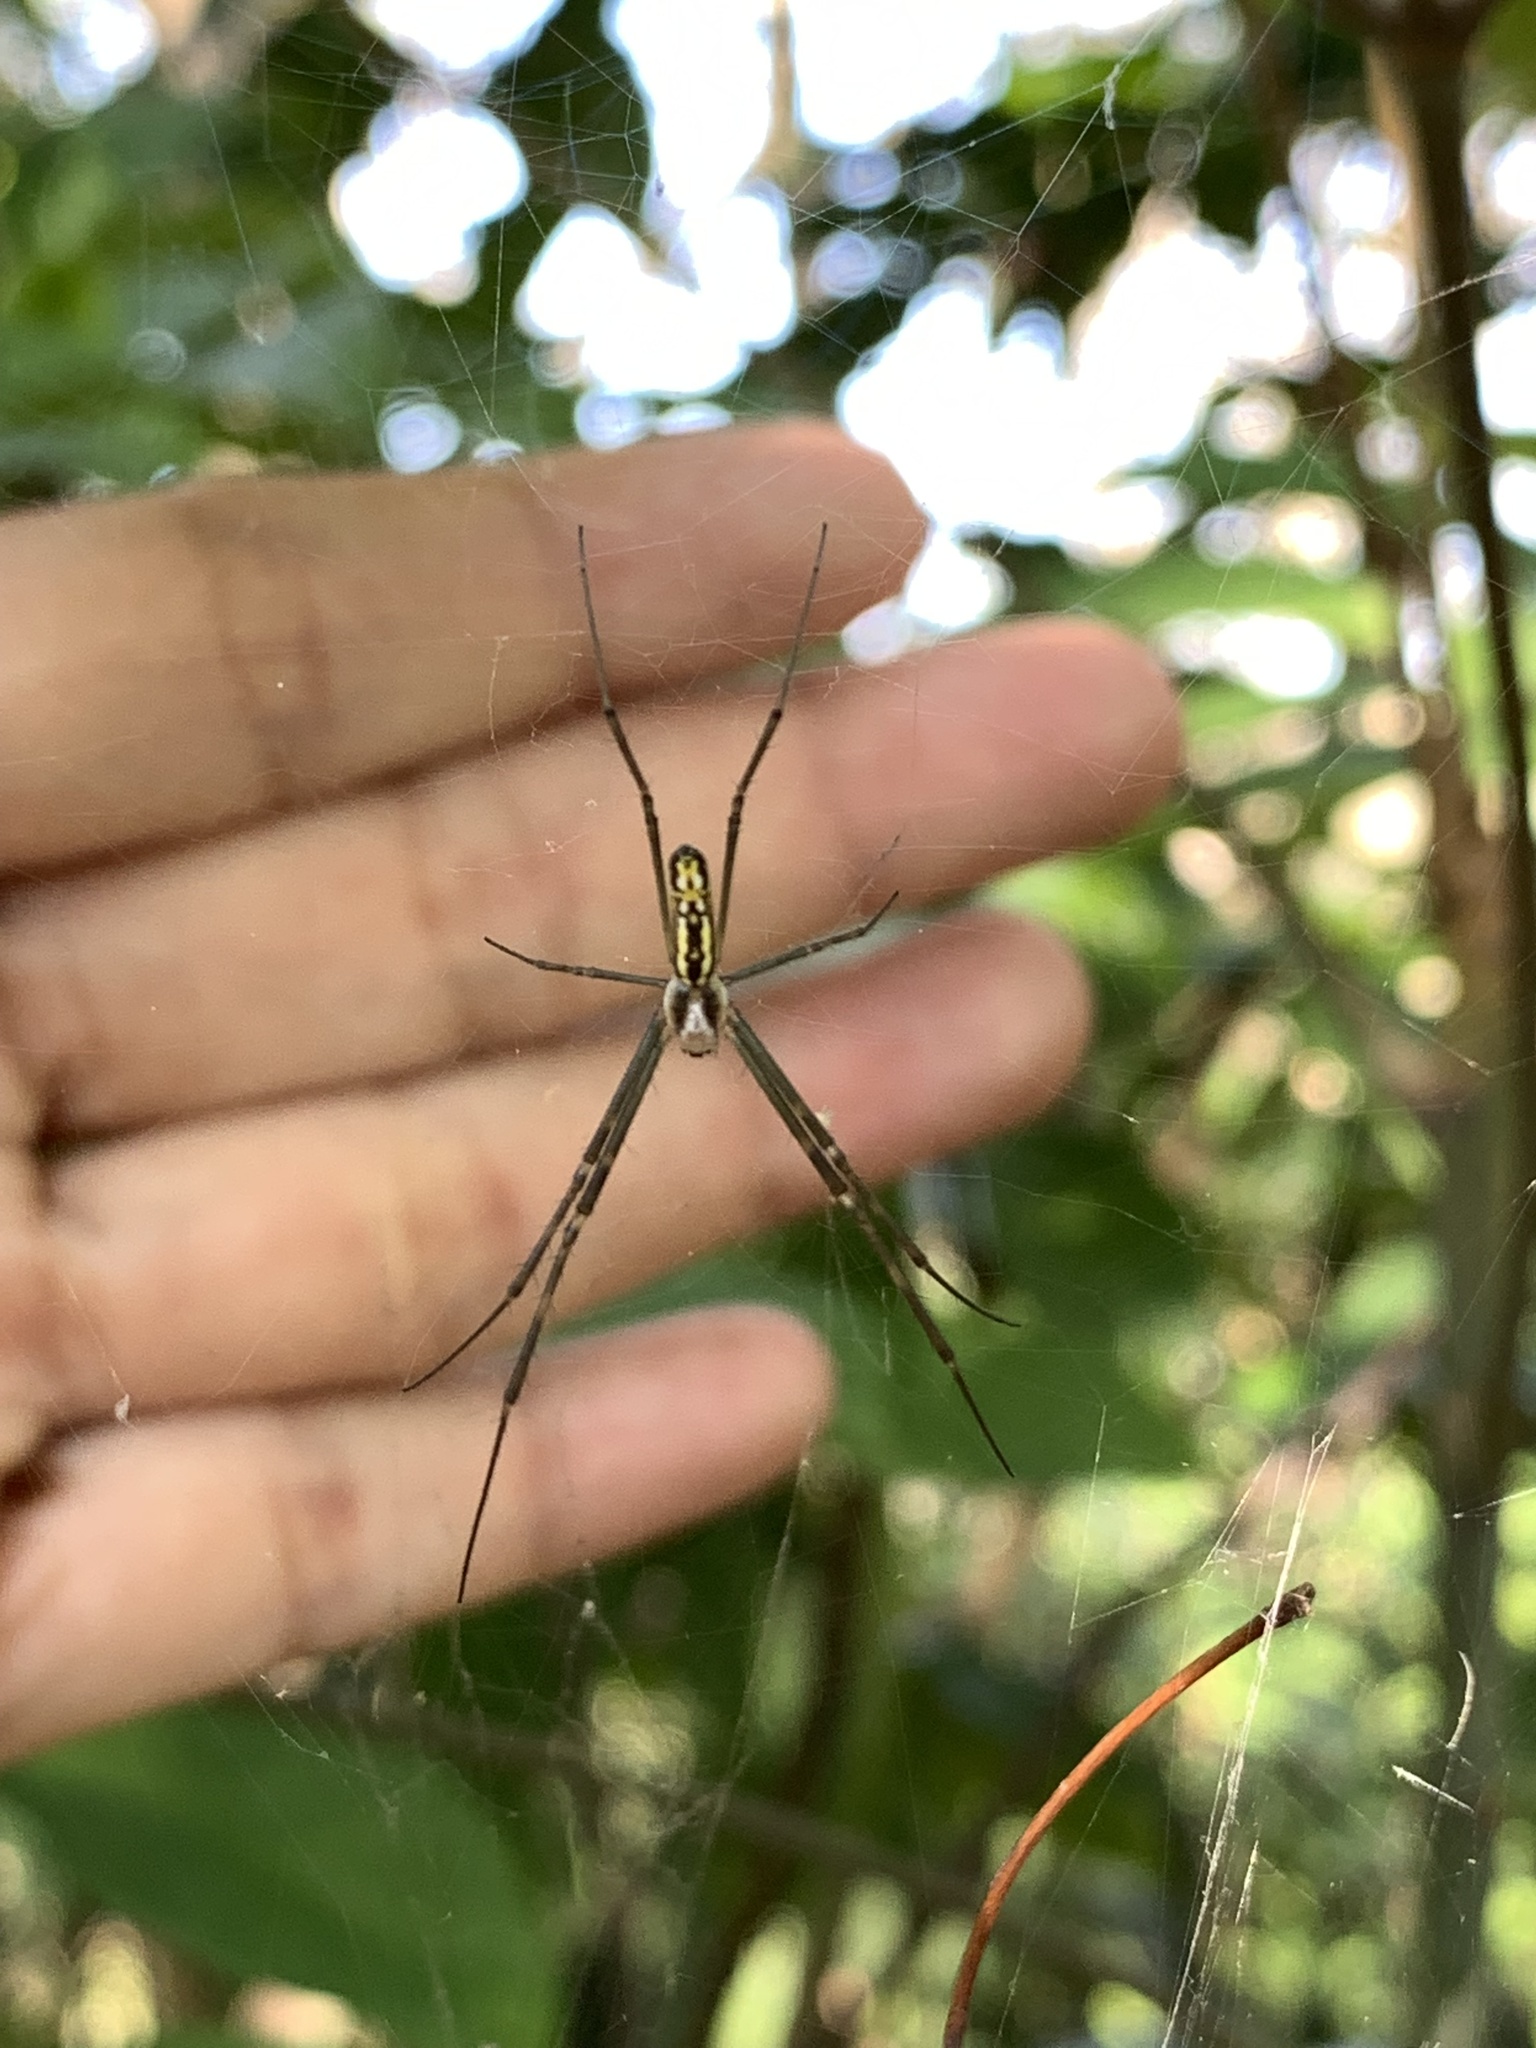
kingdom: Animalia
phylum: Arthropoda
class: Arachnida
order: Araneae
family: Araneidae
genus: Trichonephila
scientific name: Trichonephila clavata
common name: Jorō spider
